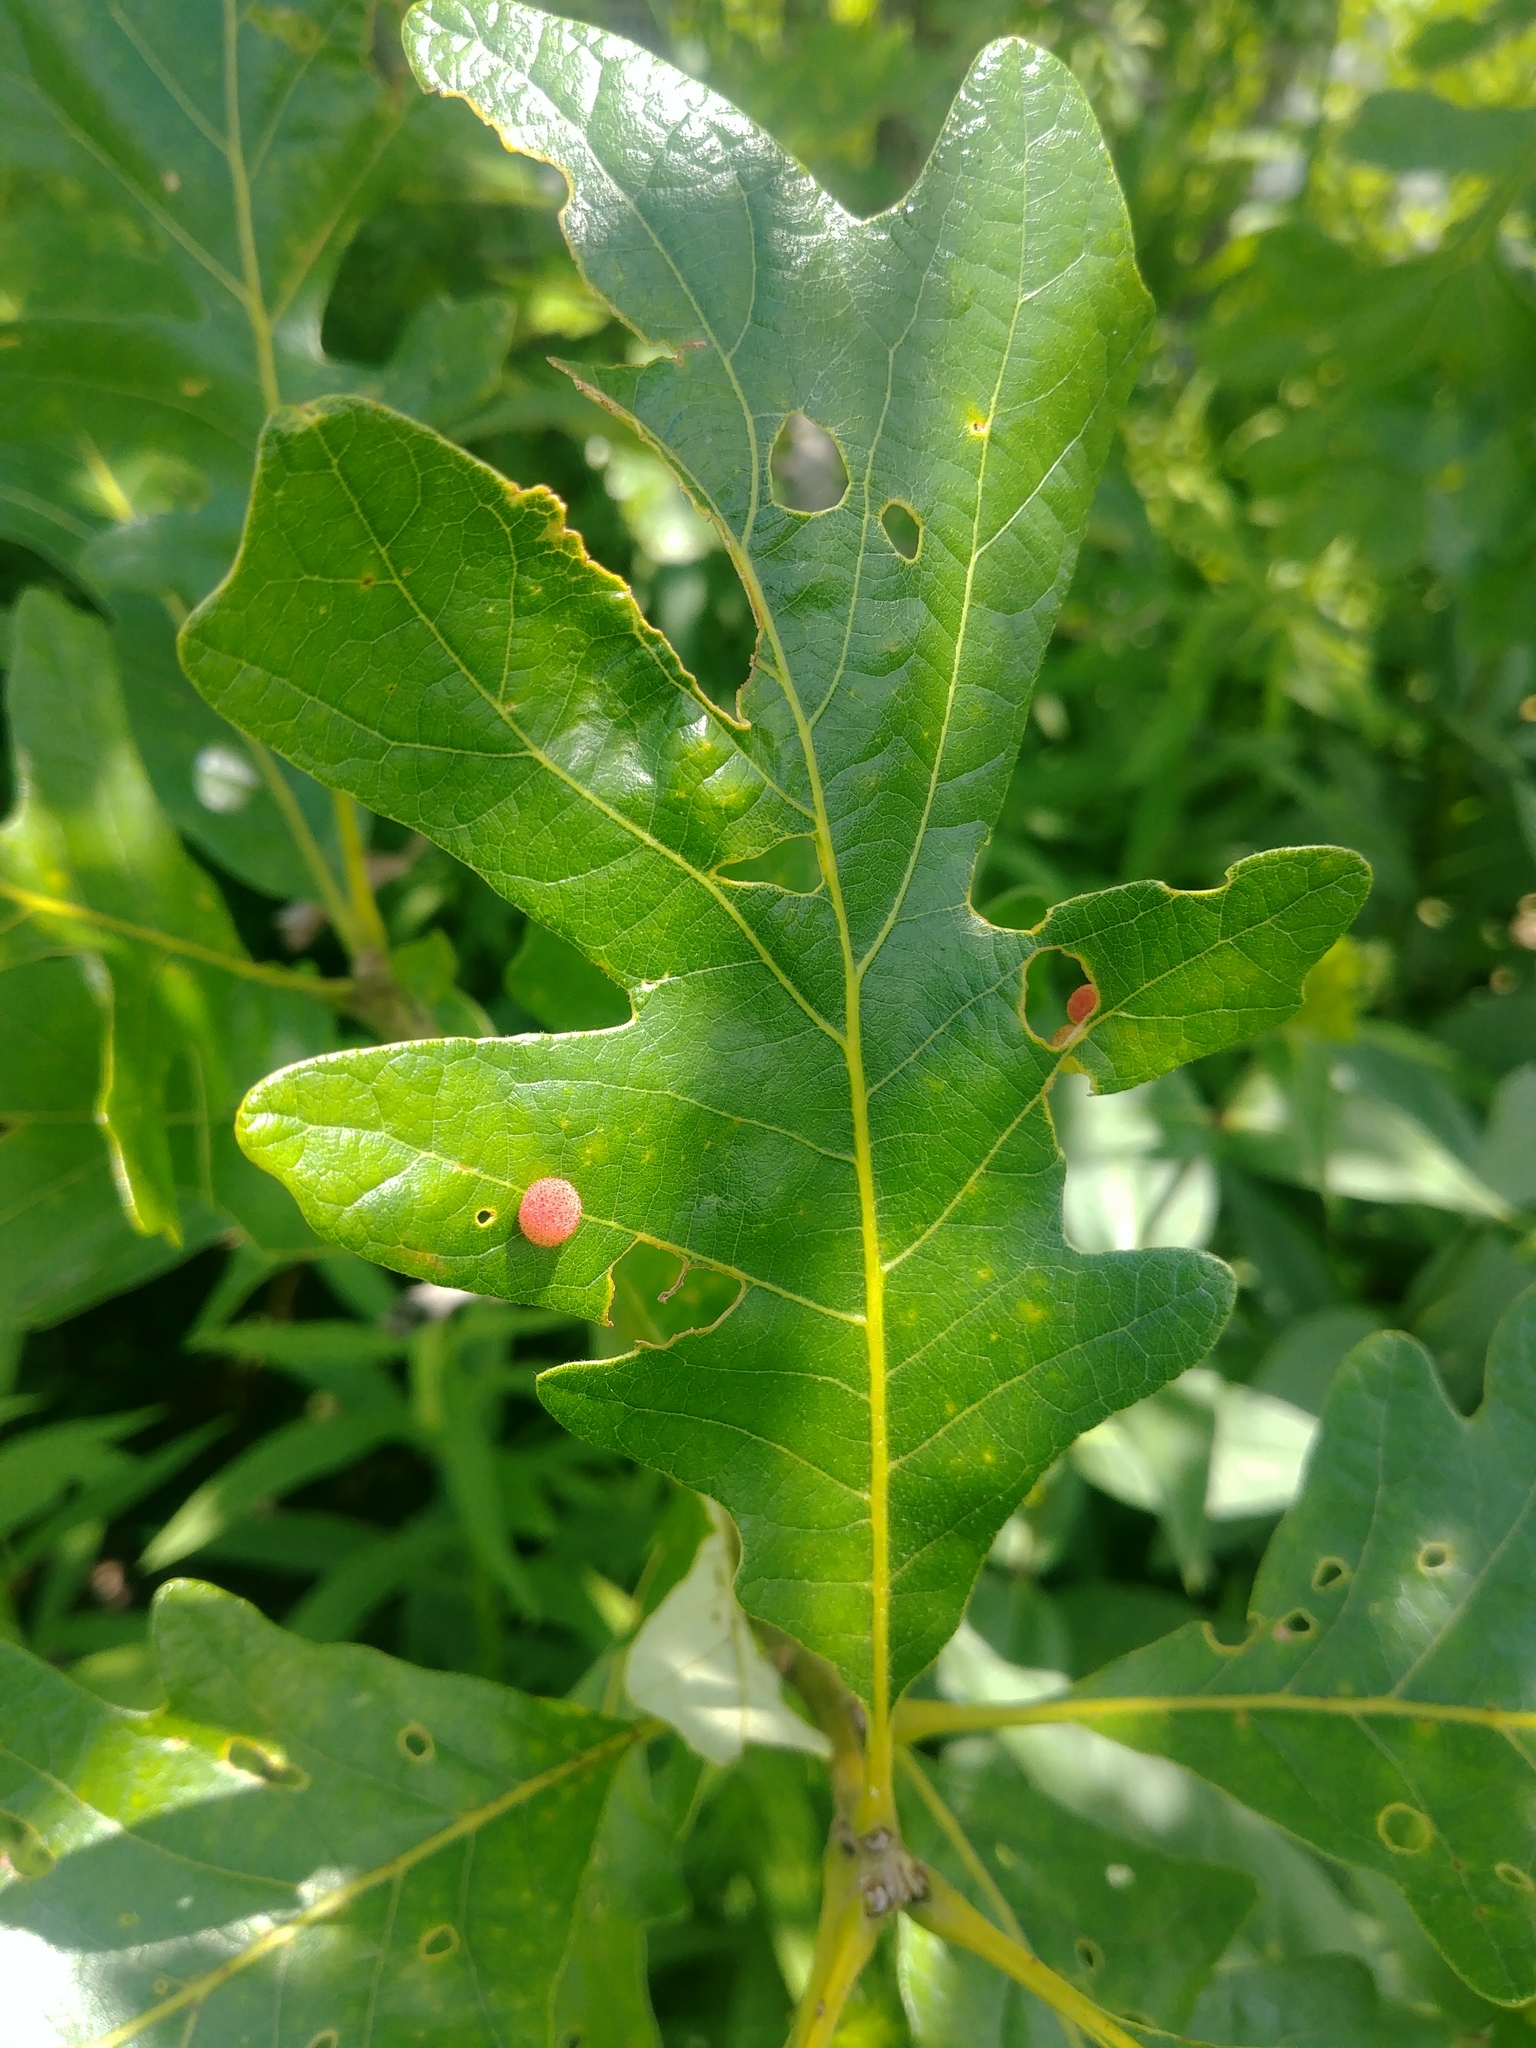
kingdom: Animalia
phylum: Arthropoda
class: Insecta
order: Hymenoptera
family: Cynipidae
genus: Acraspis
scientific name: Acraspis quercushirta
